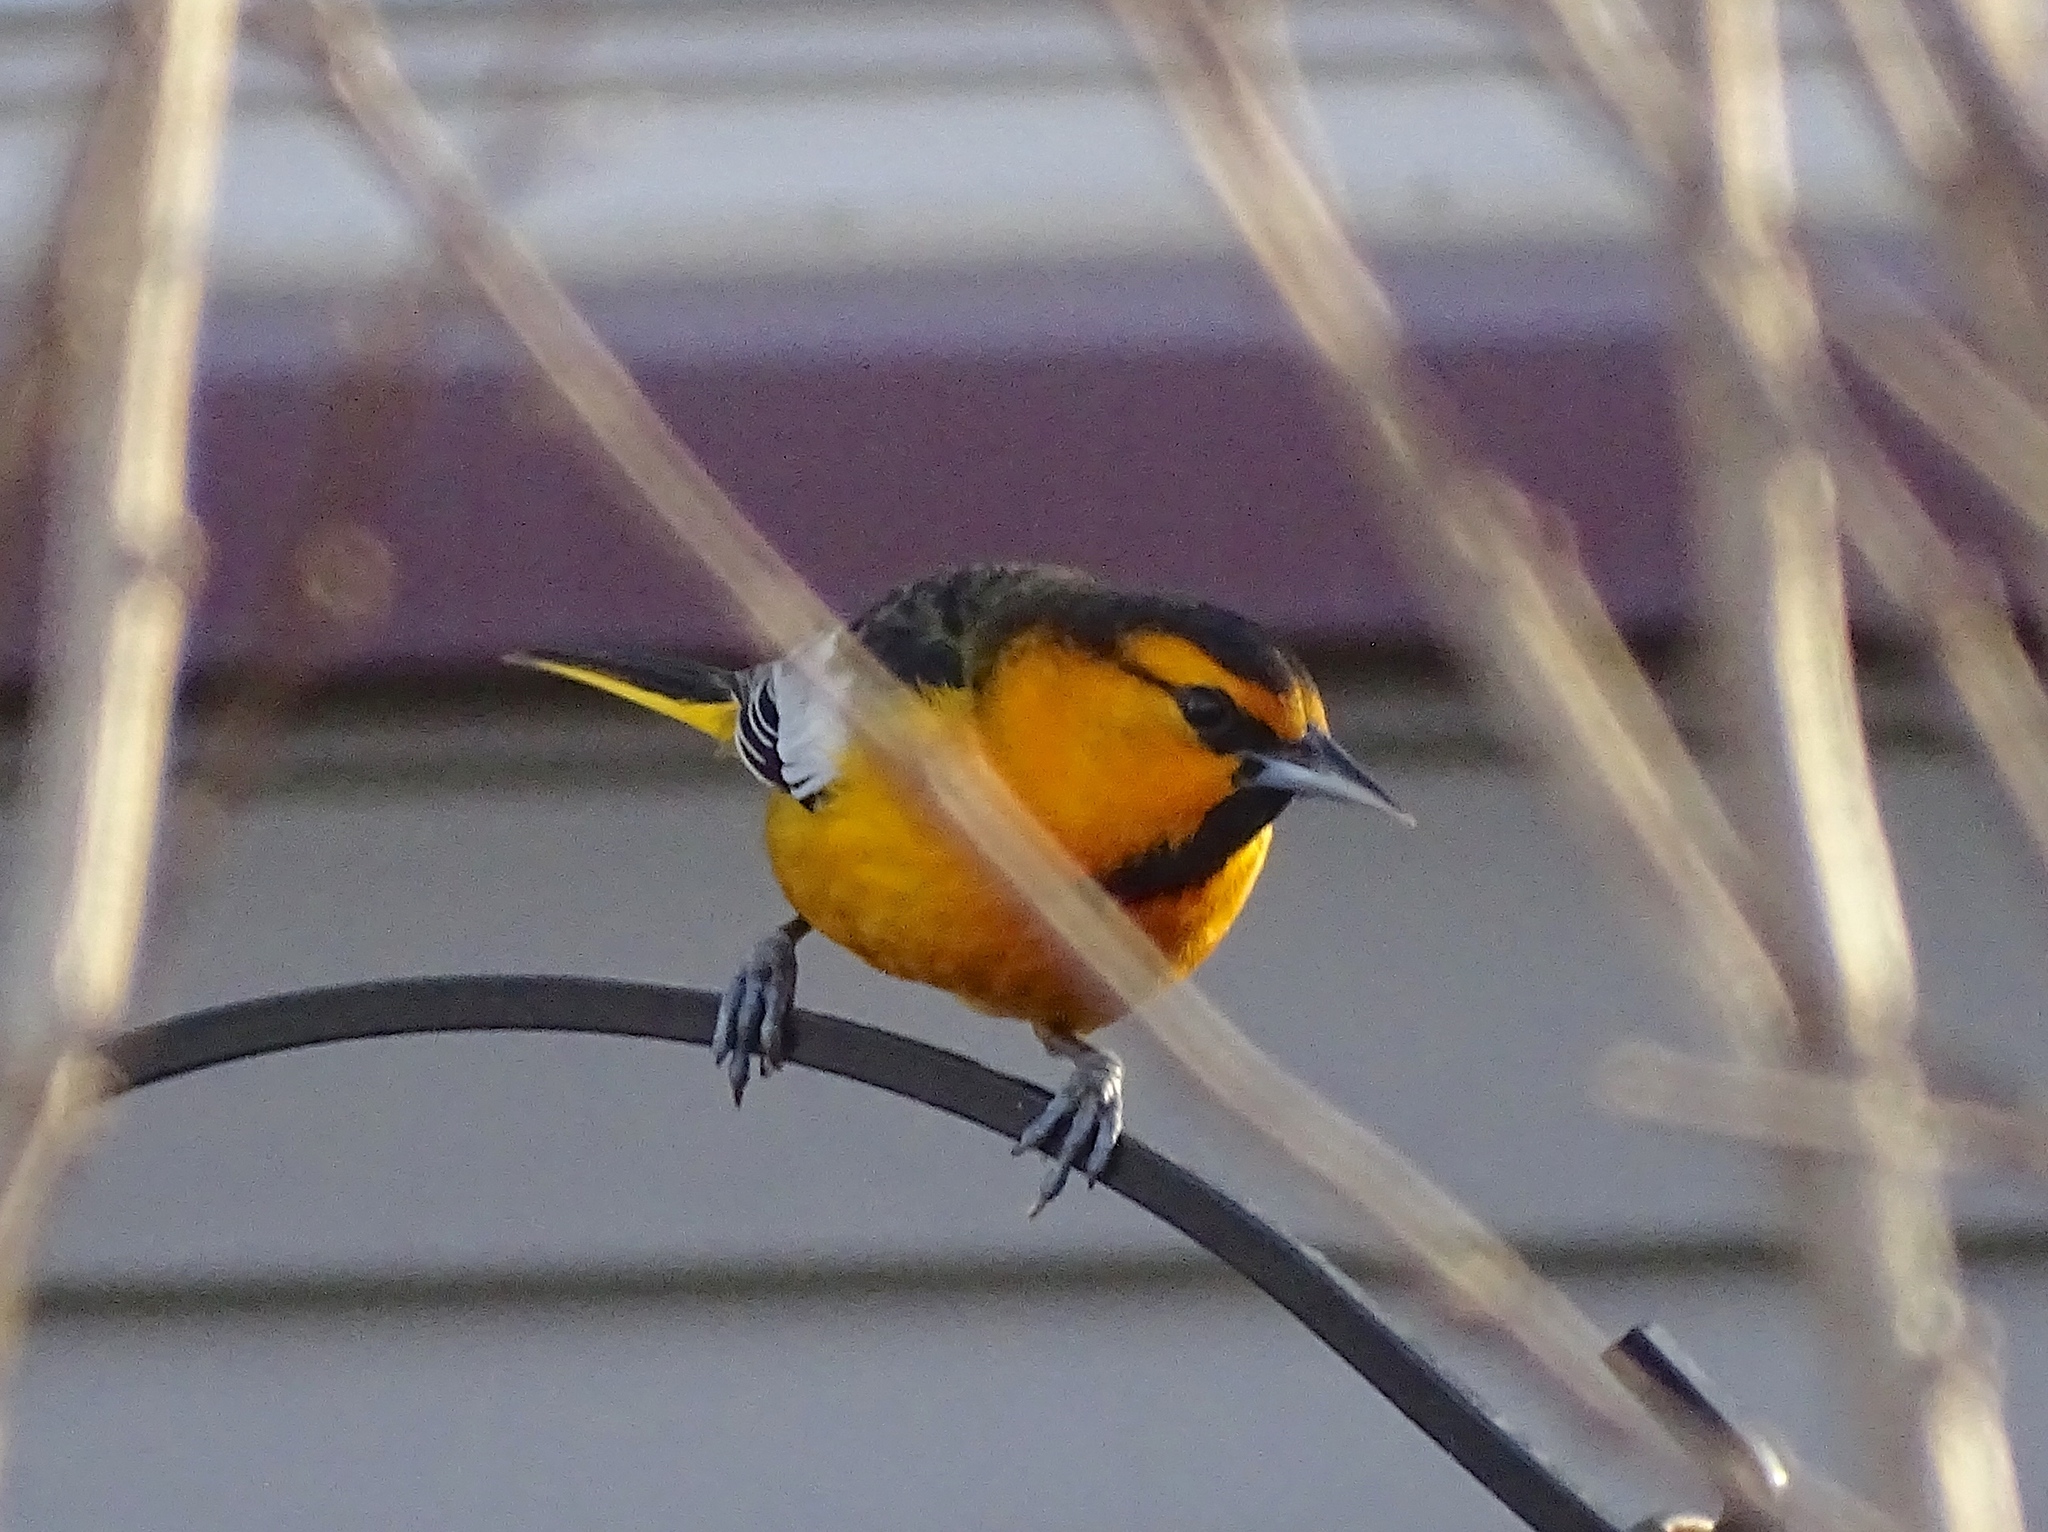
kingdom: Animalia
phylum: Chordata
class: Aves
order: Passeriformes
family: Icteridae
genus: Icterus
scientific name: Icterus bullockii
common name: Bullock's oriole
